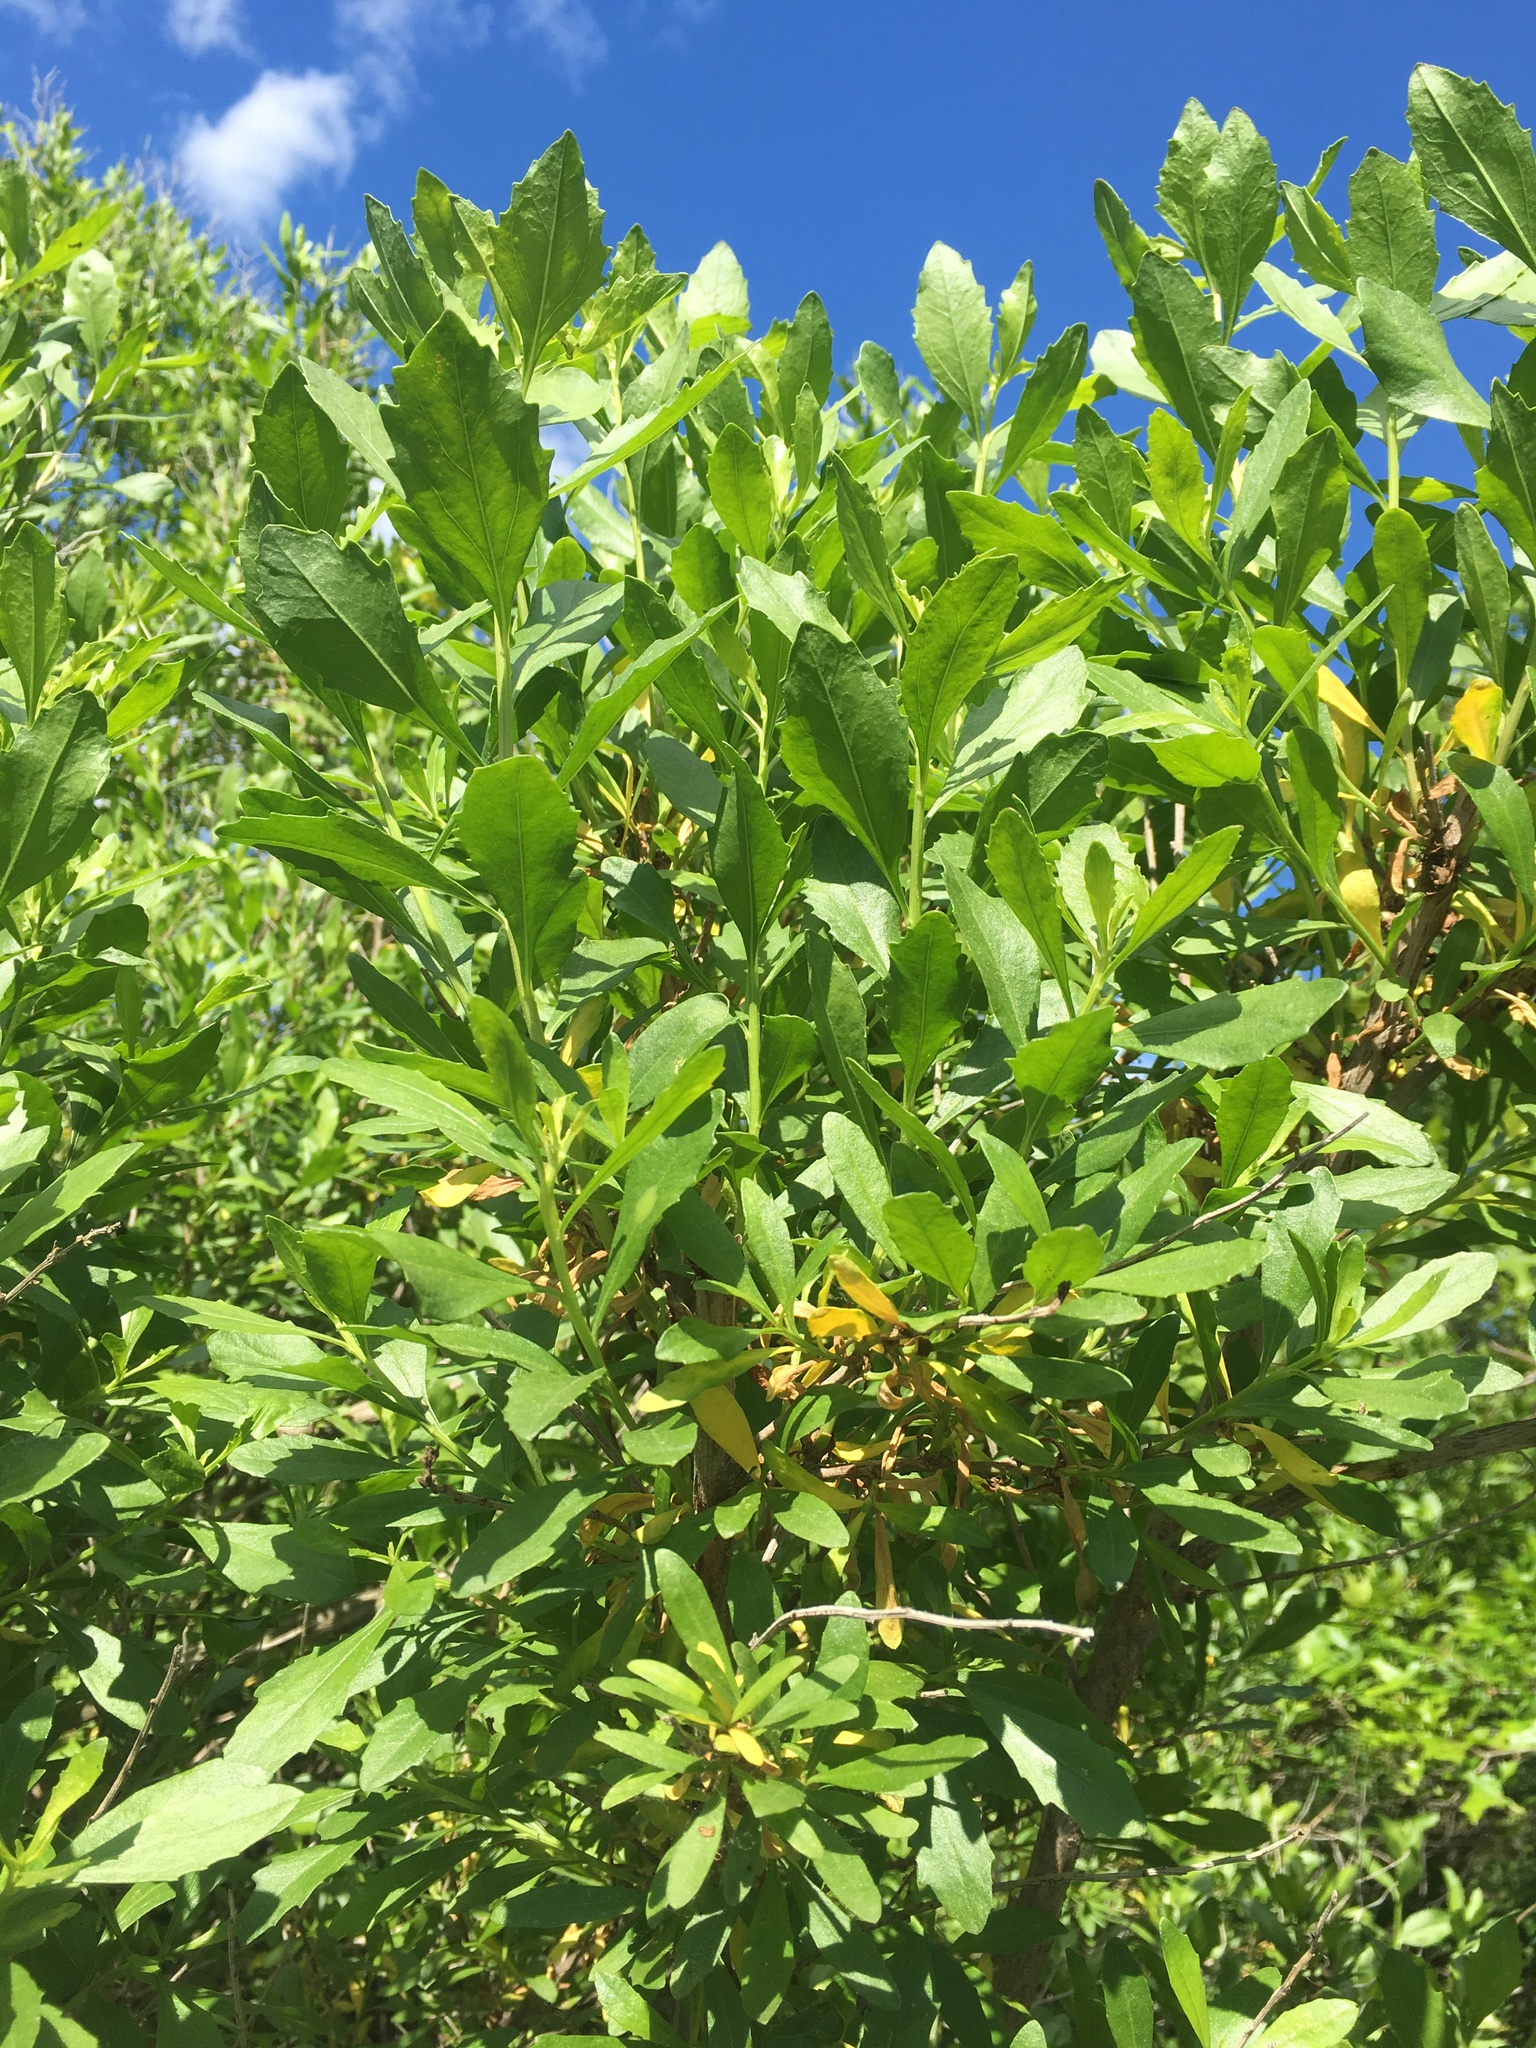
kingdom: Plantae
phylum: Tracheophyta
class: Magnoliopsida
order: Asterales
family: Asteraceae
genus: Baccharis
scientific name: Baccharis halimifolia
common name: Eastern baccharis
